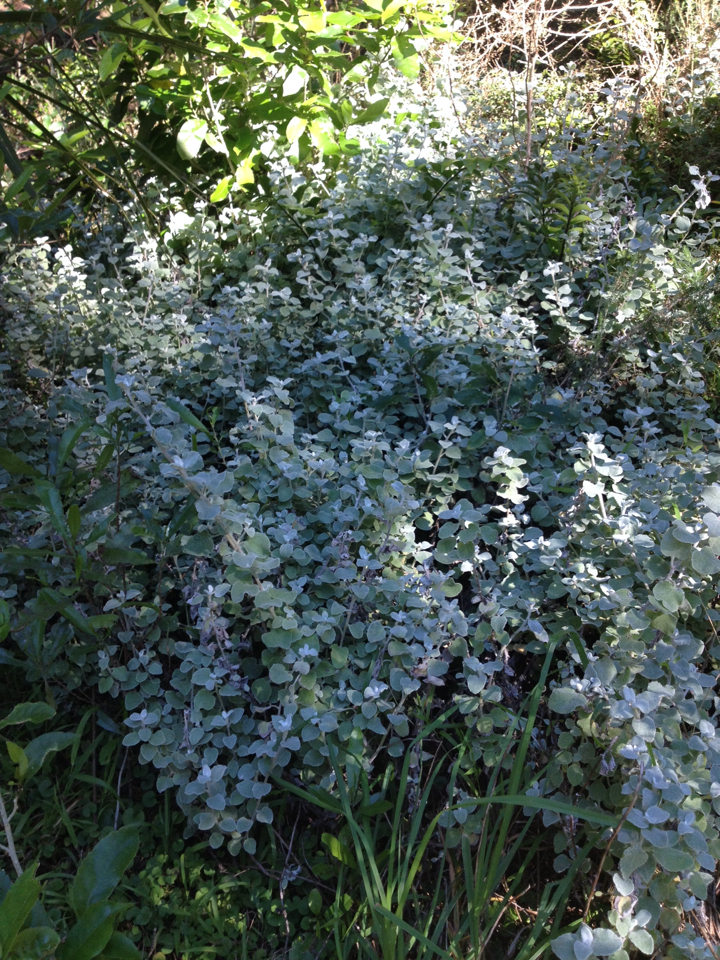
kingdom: Plantae
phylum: Tracheophyta
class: Magnoliopsida
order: Asterales
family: Asteraceae
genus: Helichrysum
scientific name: Helichrysum petiolare
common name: Licorice-plant
